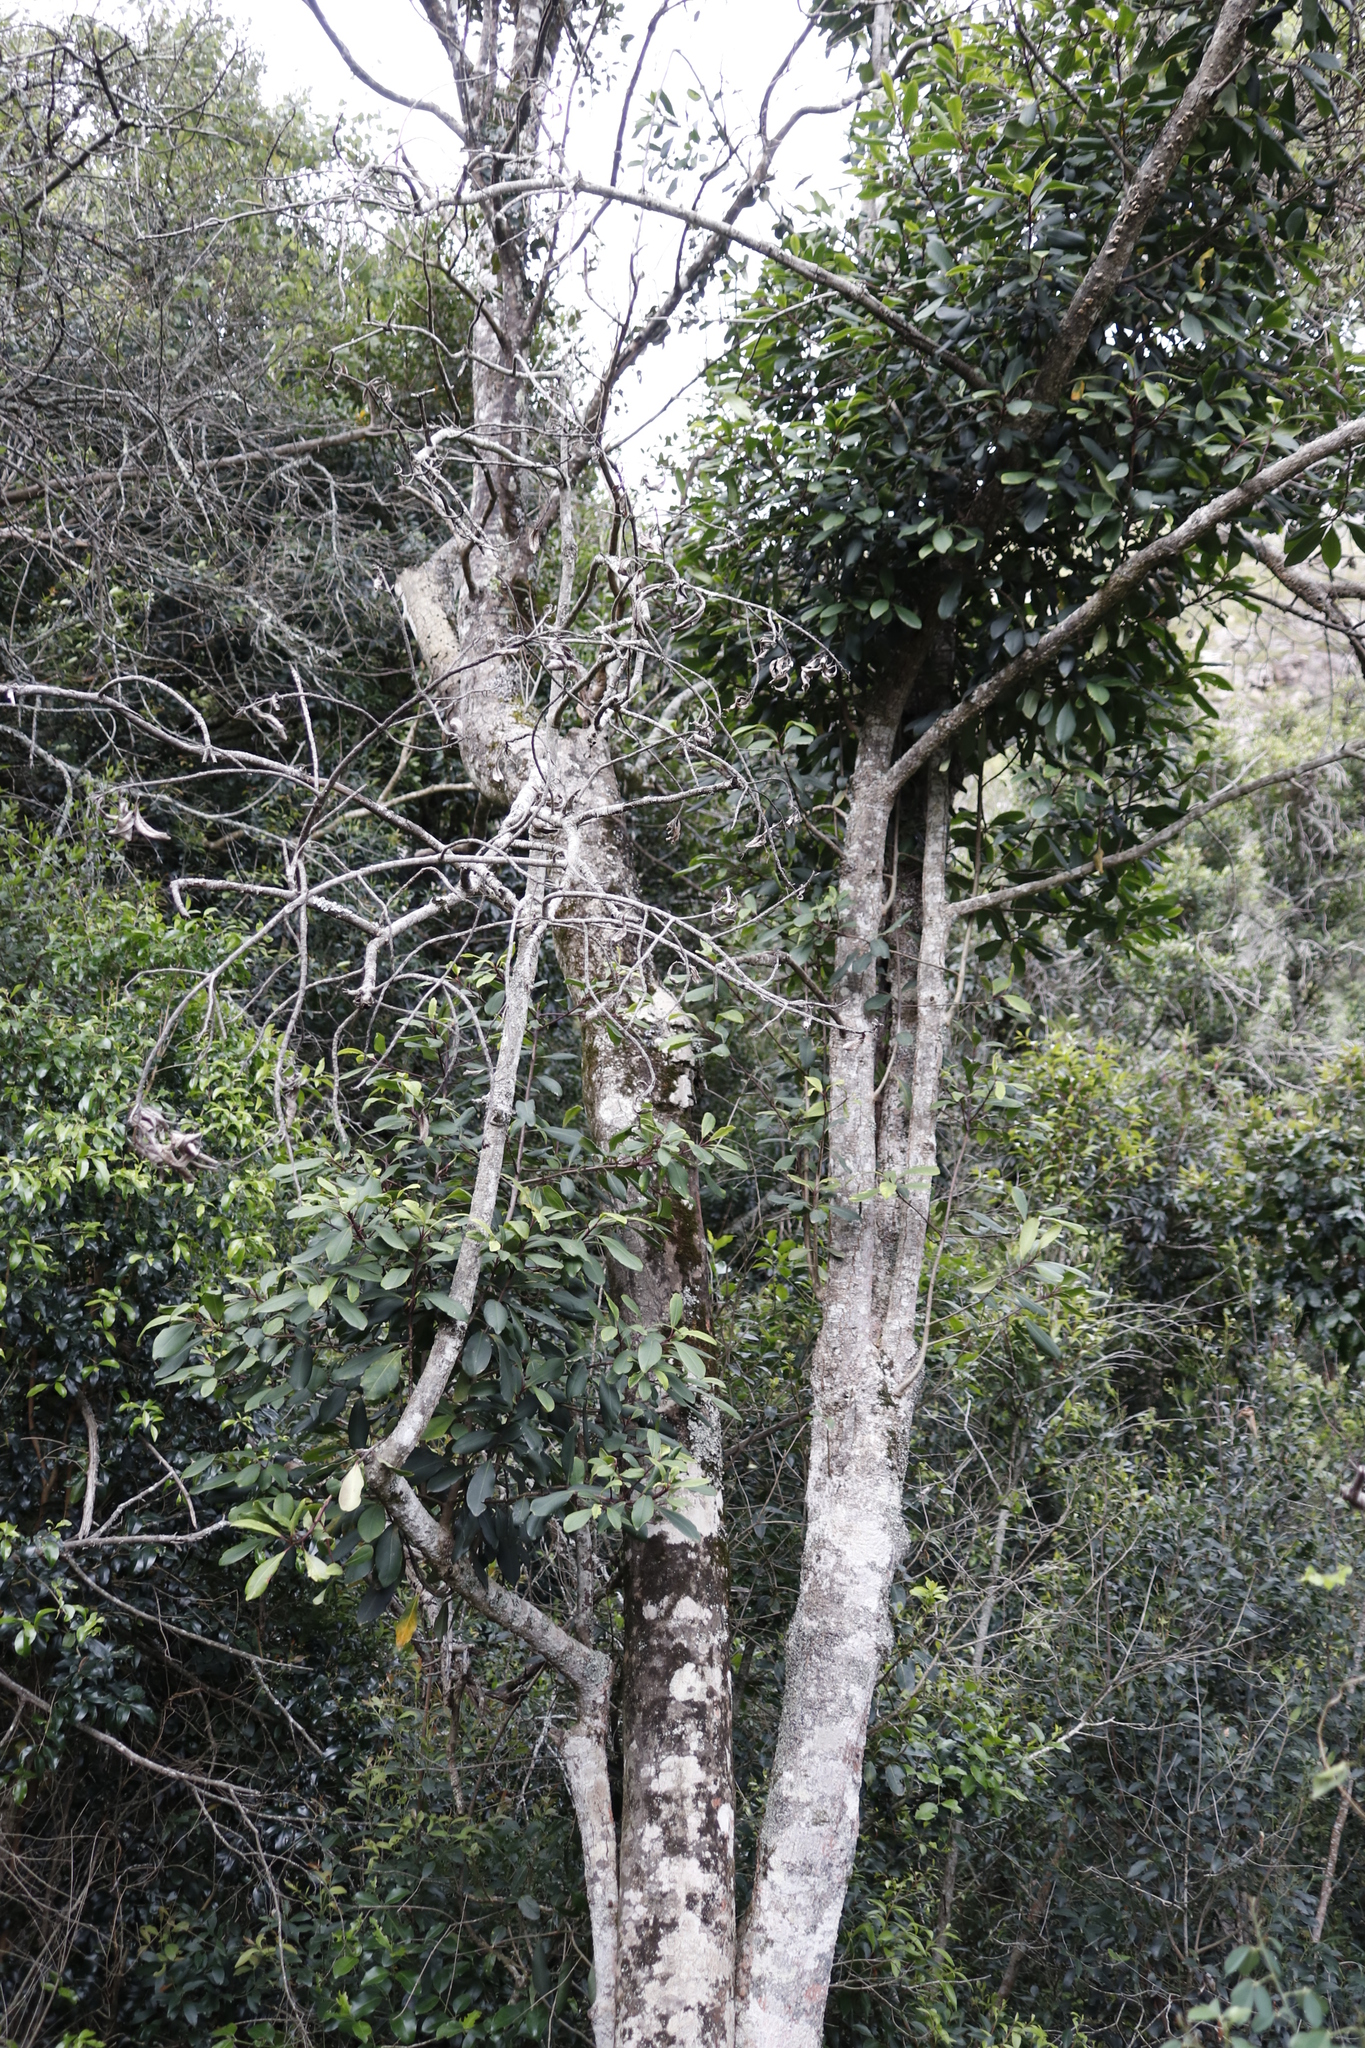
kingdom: Plantae
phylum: Tracheophyta
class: Magnoliopsida
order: Ericales
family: Primulaceae
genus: Myrsine
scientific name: Myrsine melanophloeos
